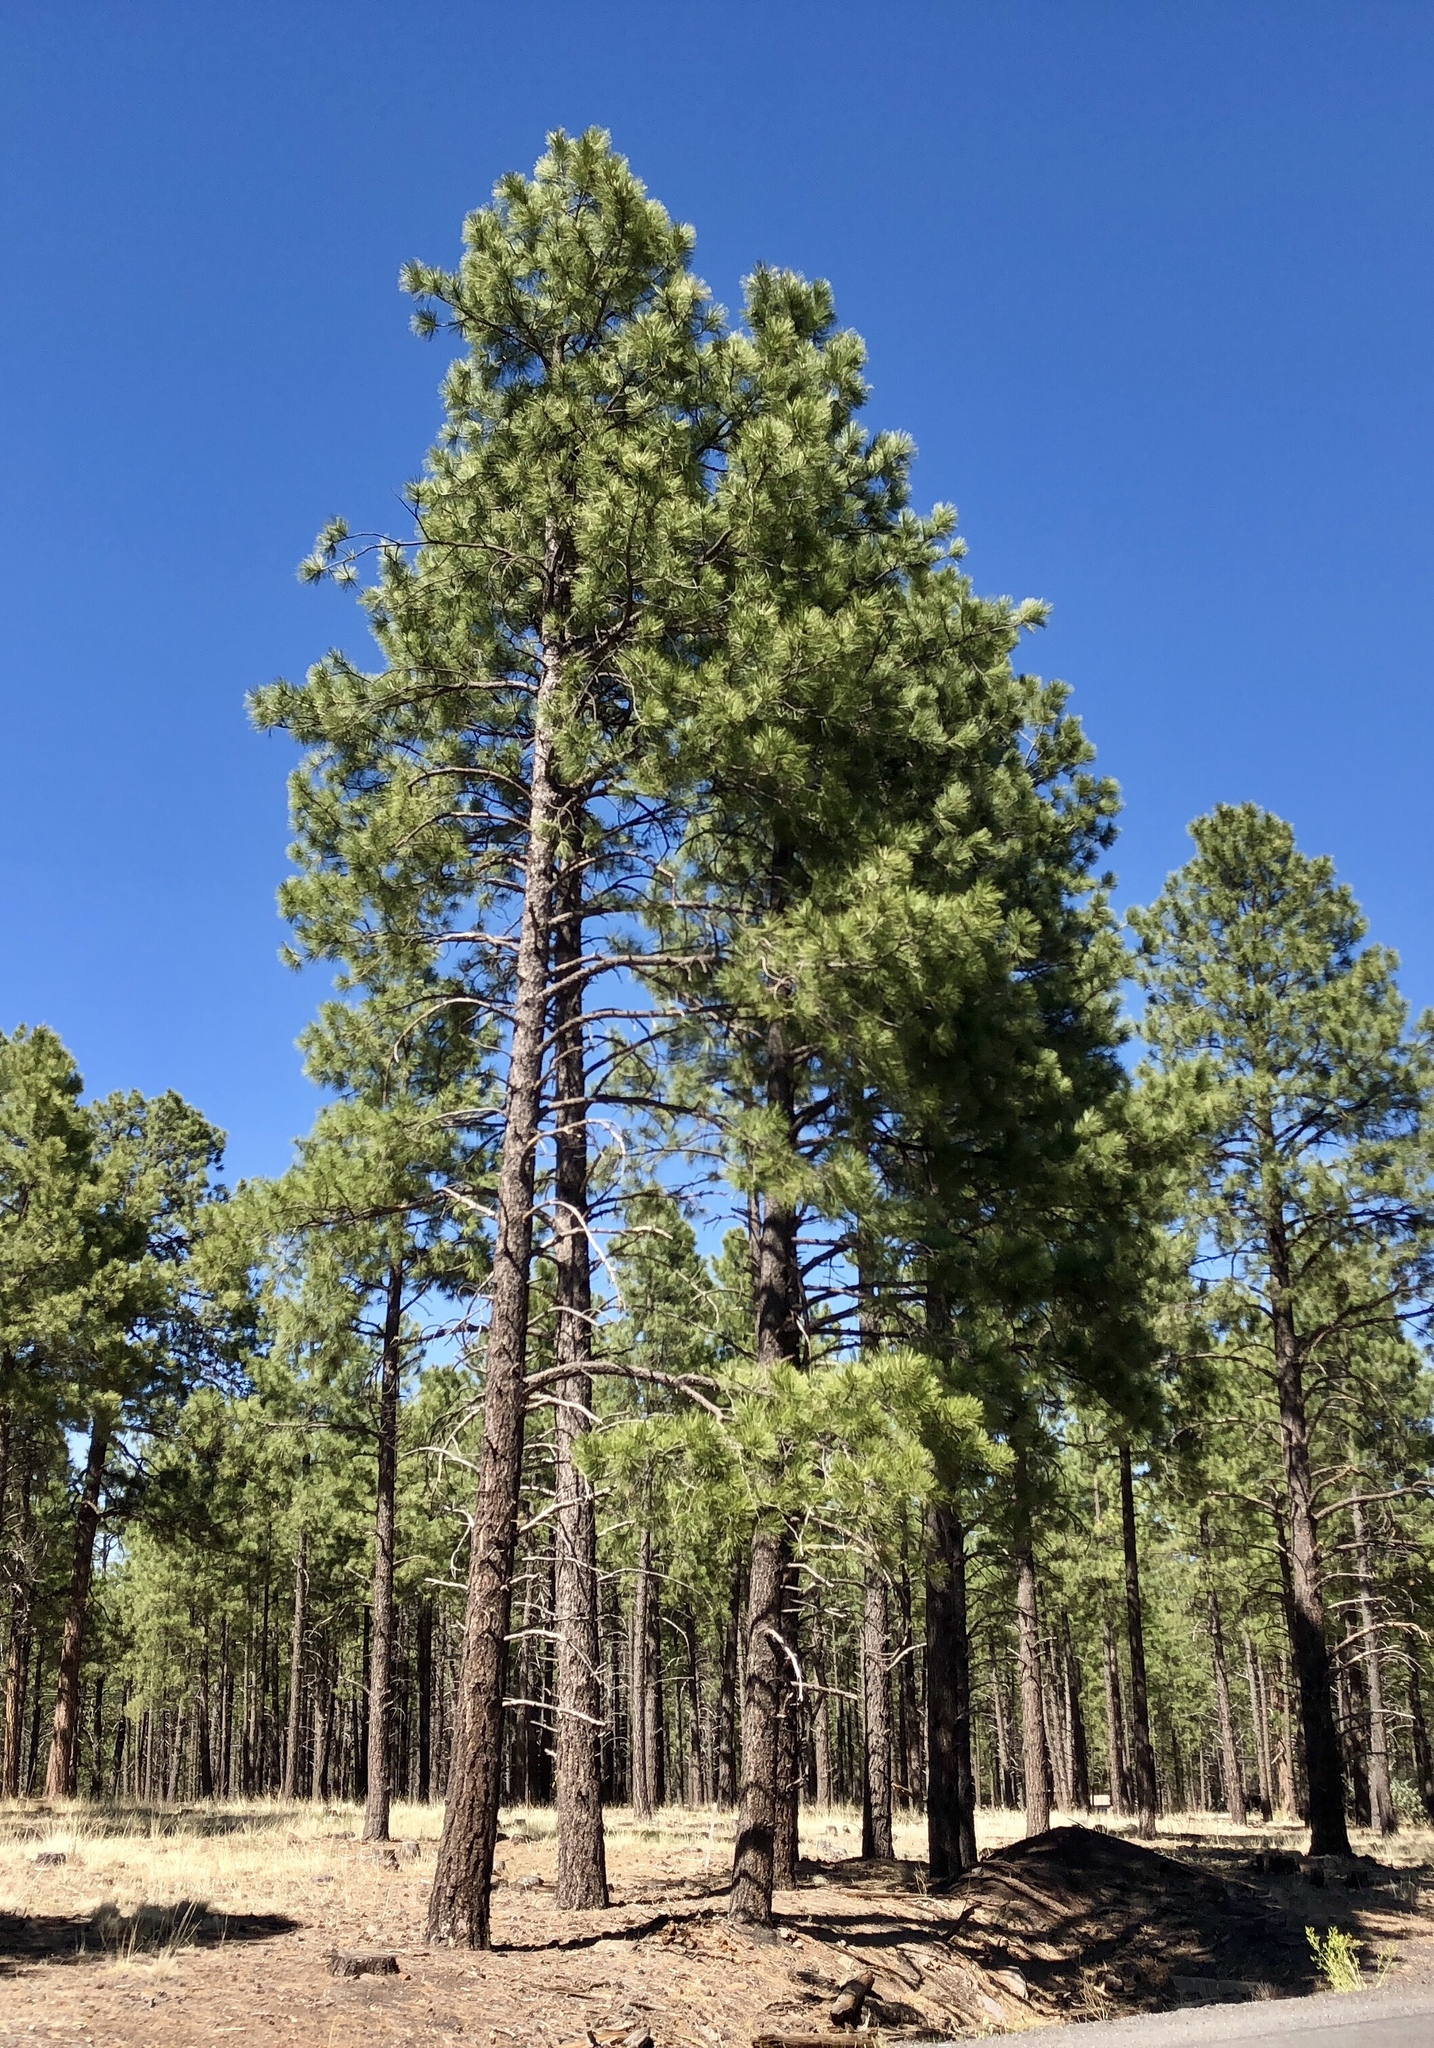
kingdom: Plantae
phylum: Tracheophyta
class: Pinopsida
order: Pinales
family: Pinaceae
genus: Pinus
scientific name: Pinus ponderosa
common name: Western yellow-pine
